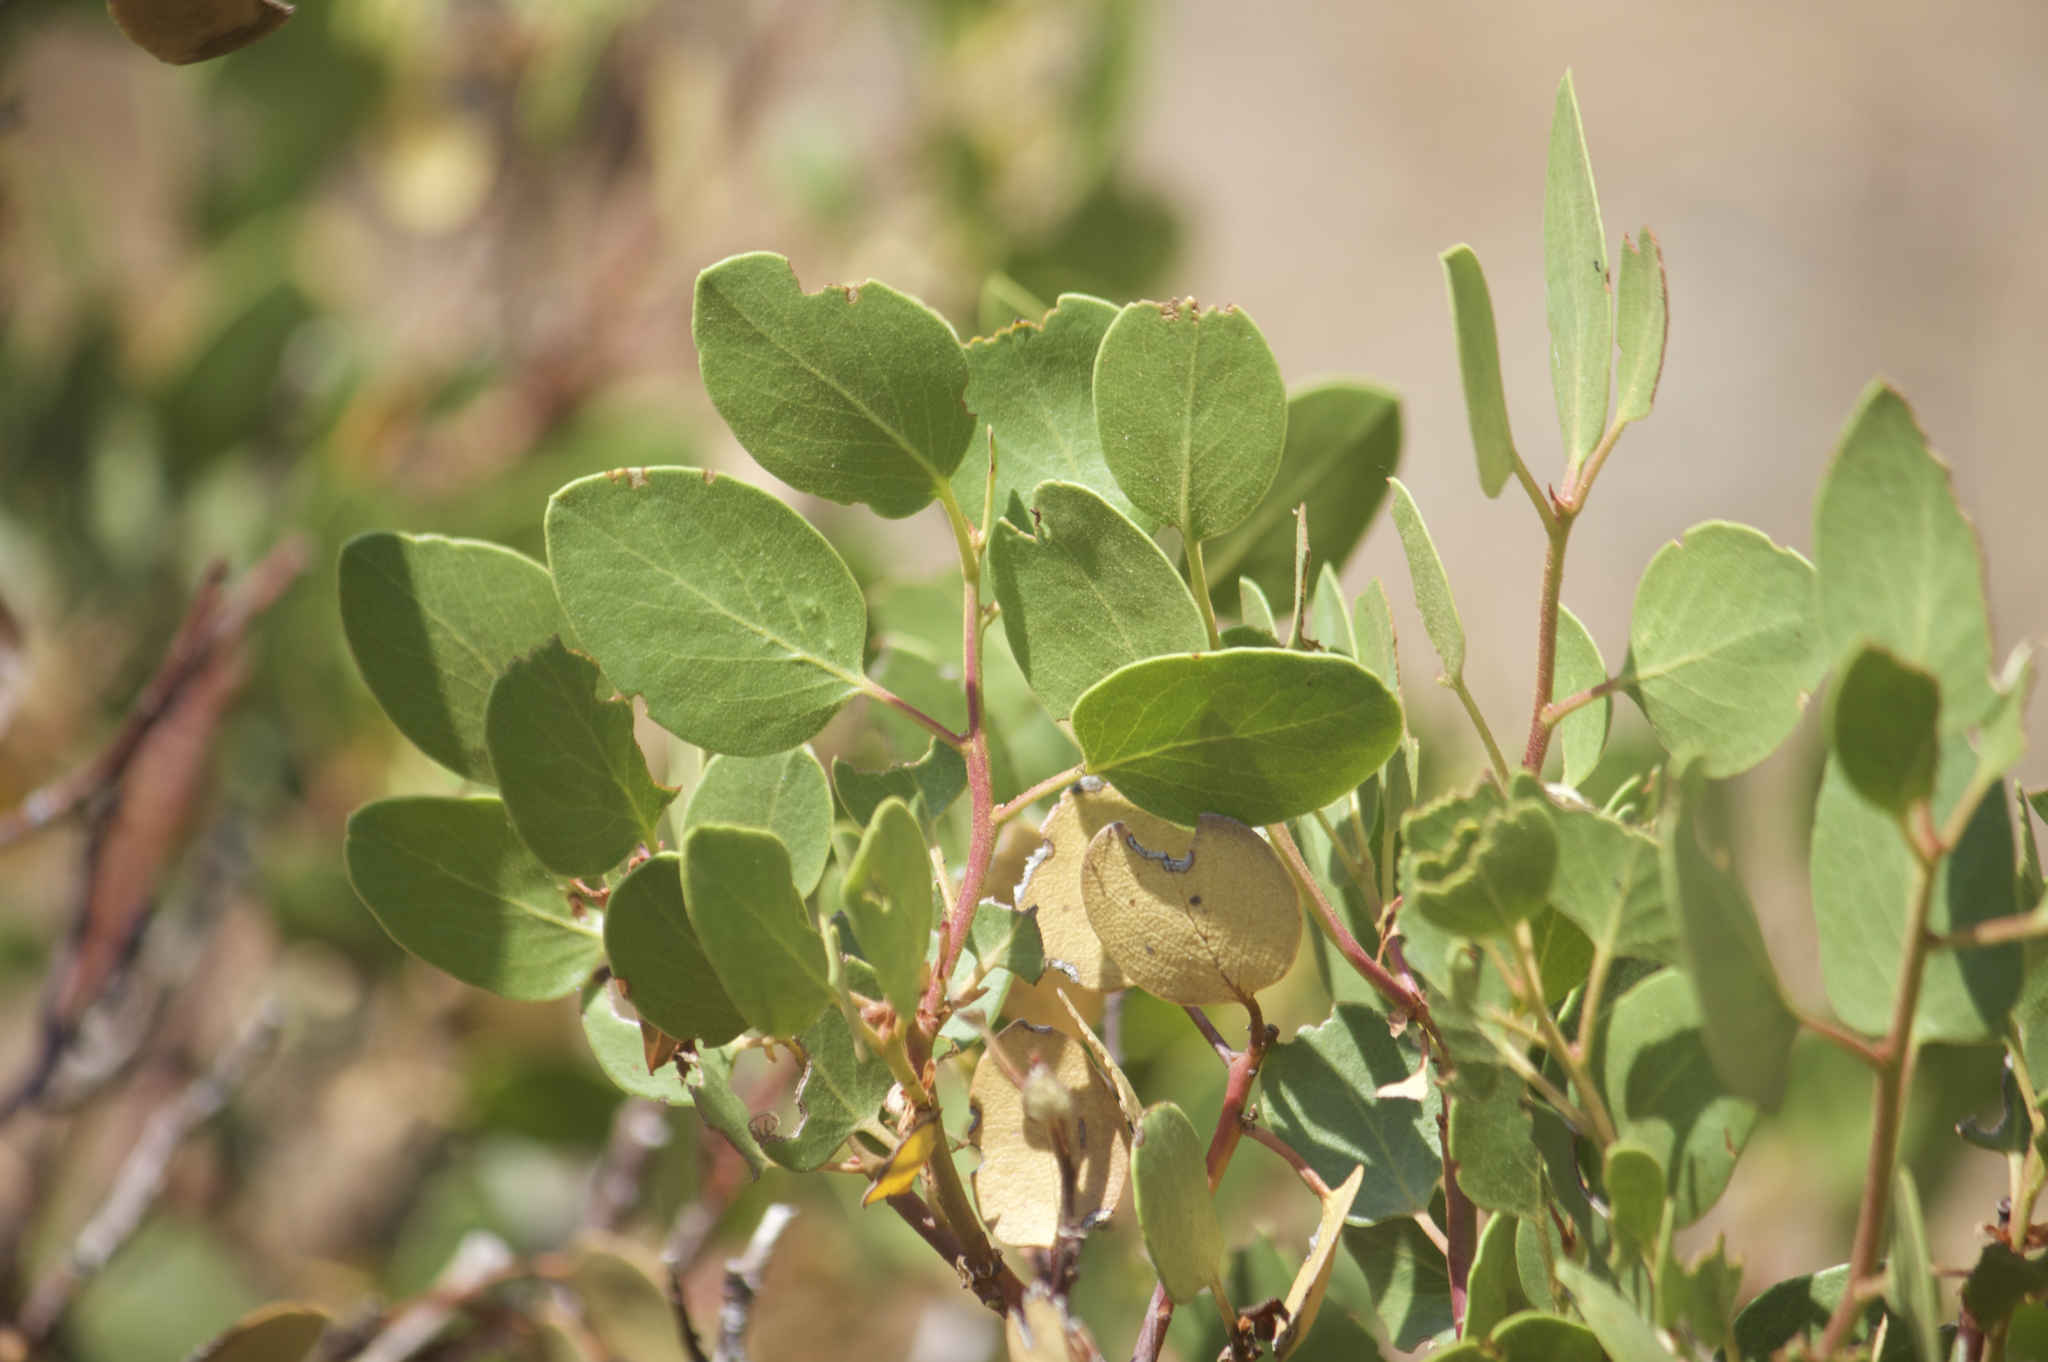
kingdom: Plantae
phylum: Tracheophyta
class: Magnoliopsida
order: Ericales
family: Ericaceae
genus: Arctostaphylos
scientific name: Arctostaphylos patula
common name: Green-leaf manzanita
